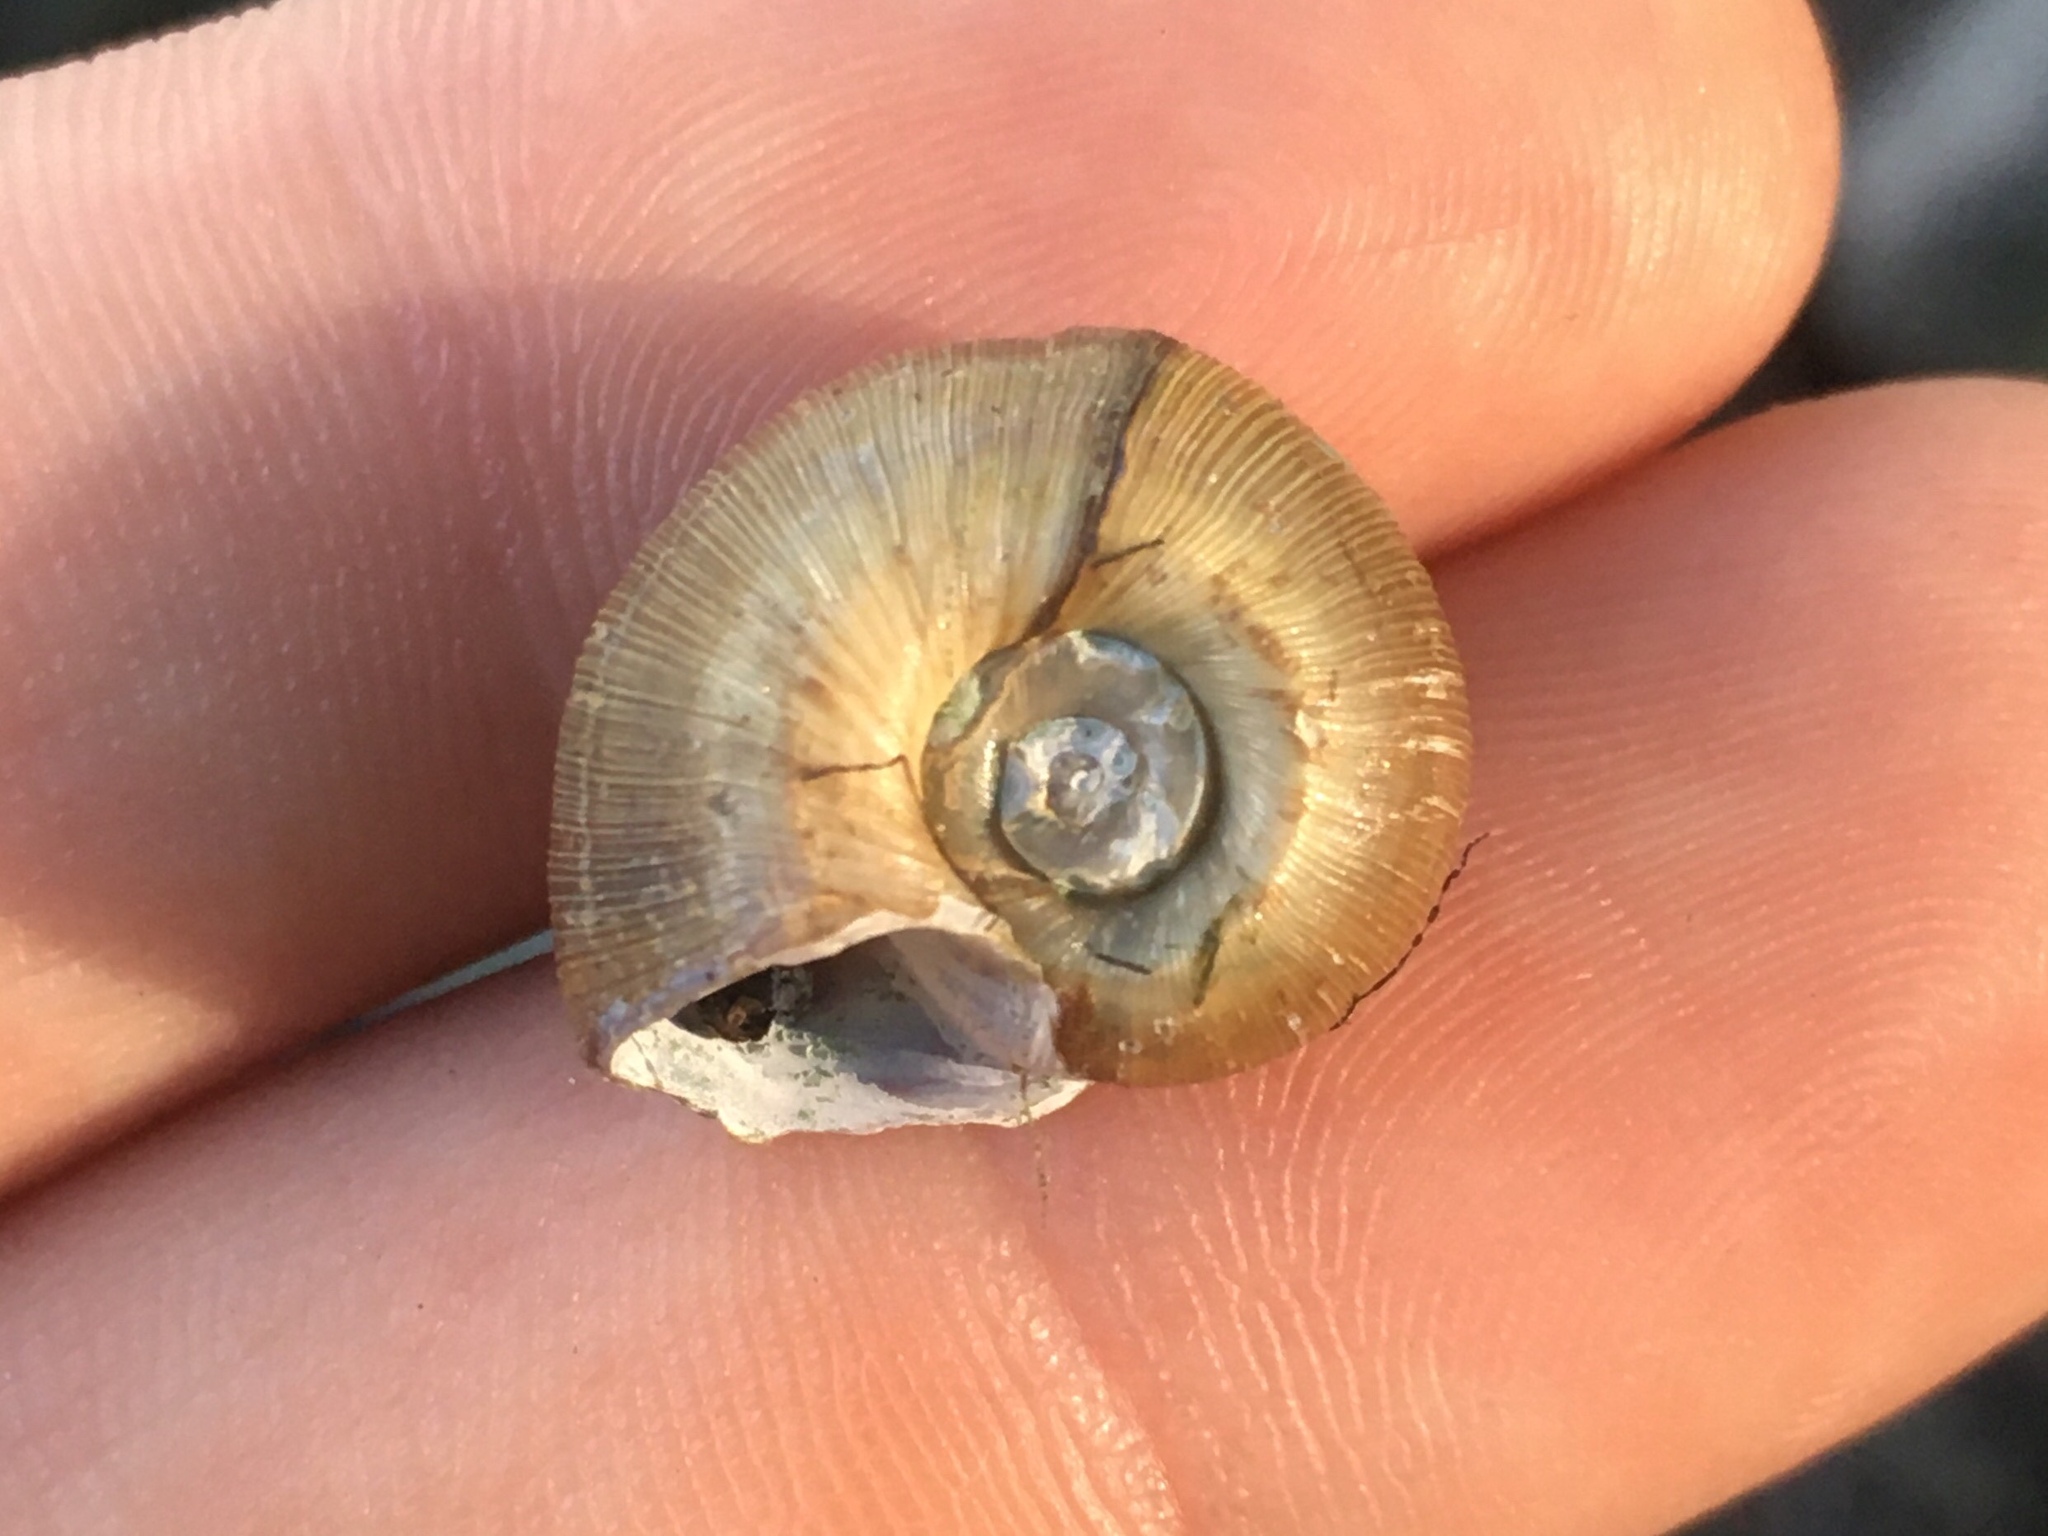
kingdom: Animalia
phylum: Mollusca
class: Gastropoda
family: Planorbidae
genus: Planorbella
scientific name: Planorbella trivolvis
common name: Marsh rams-horn
